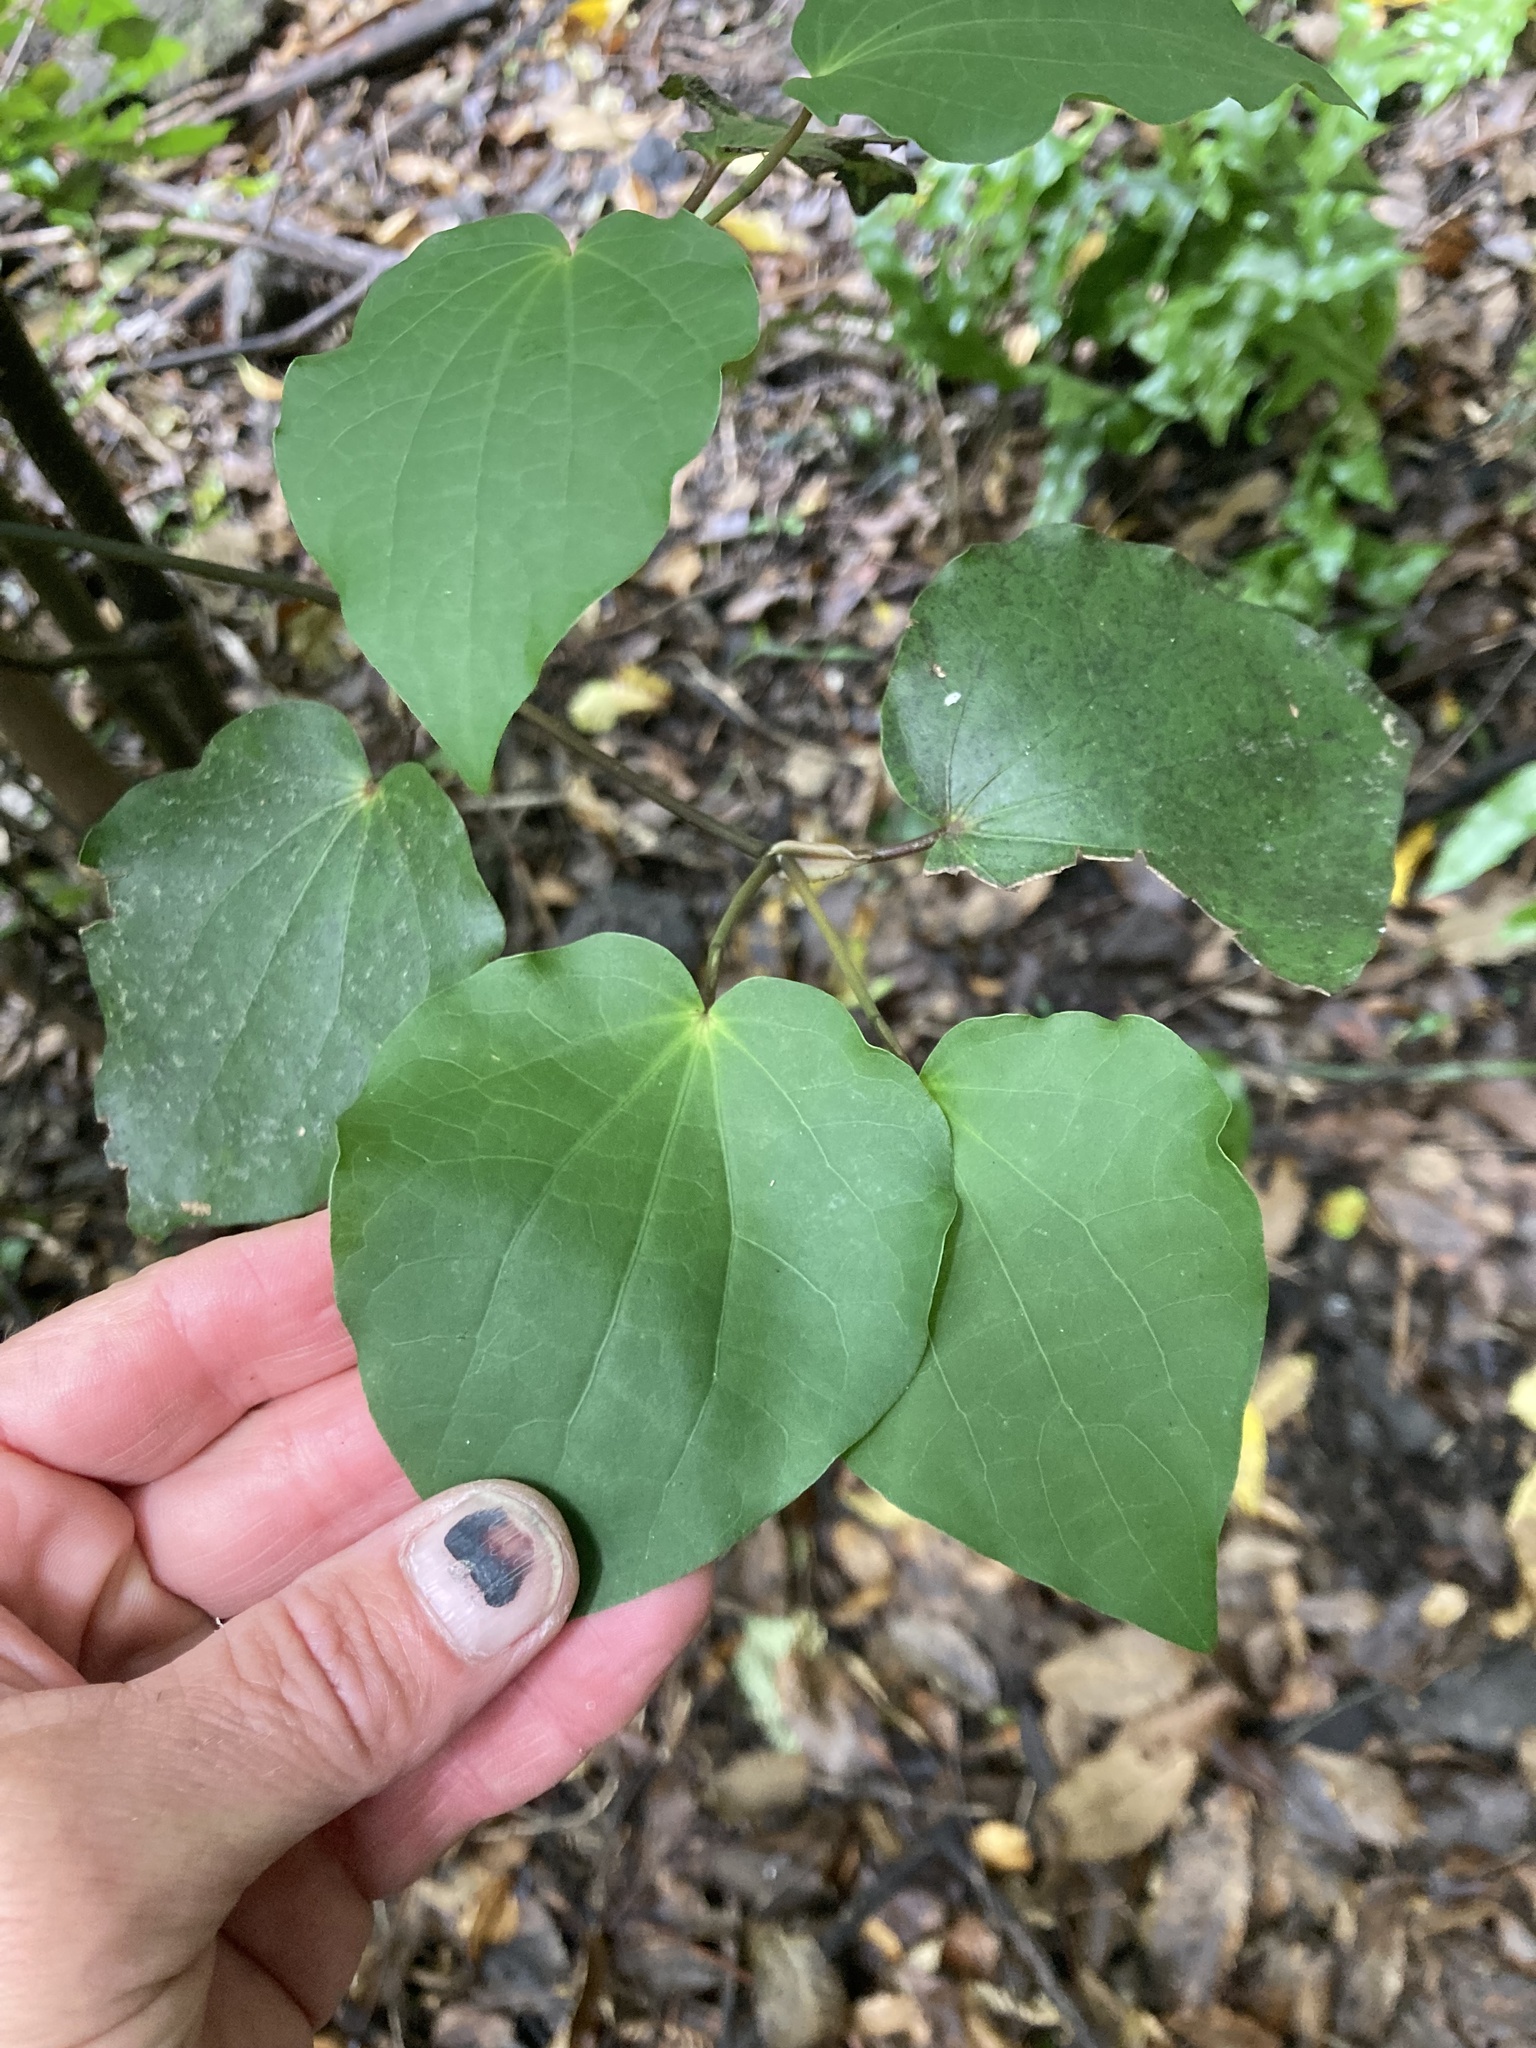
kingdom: Plantae
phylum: Tracheophyta
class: Magnoliopsida
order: Piperales
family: Piperaceae
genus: Macropiper
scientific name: Macropiper excelsum
